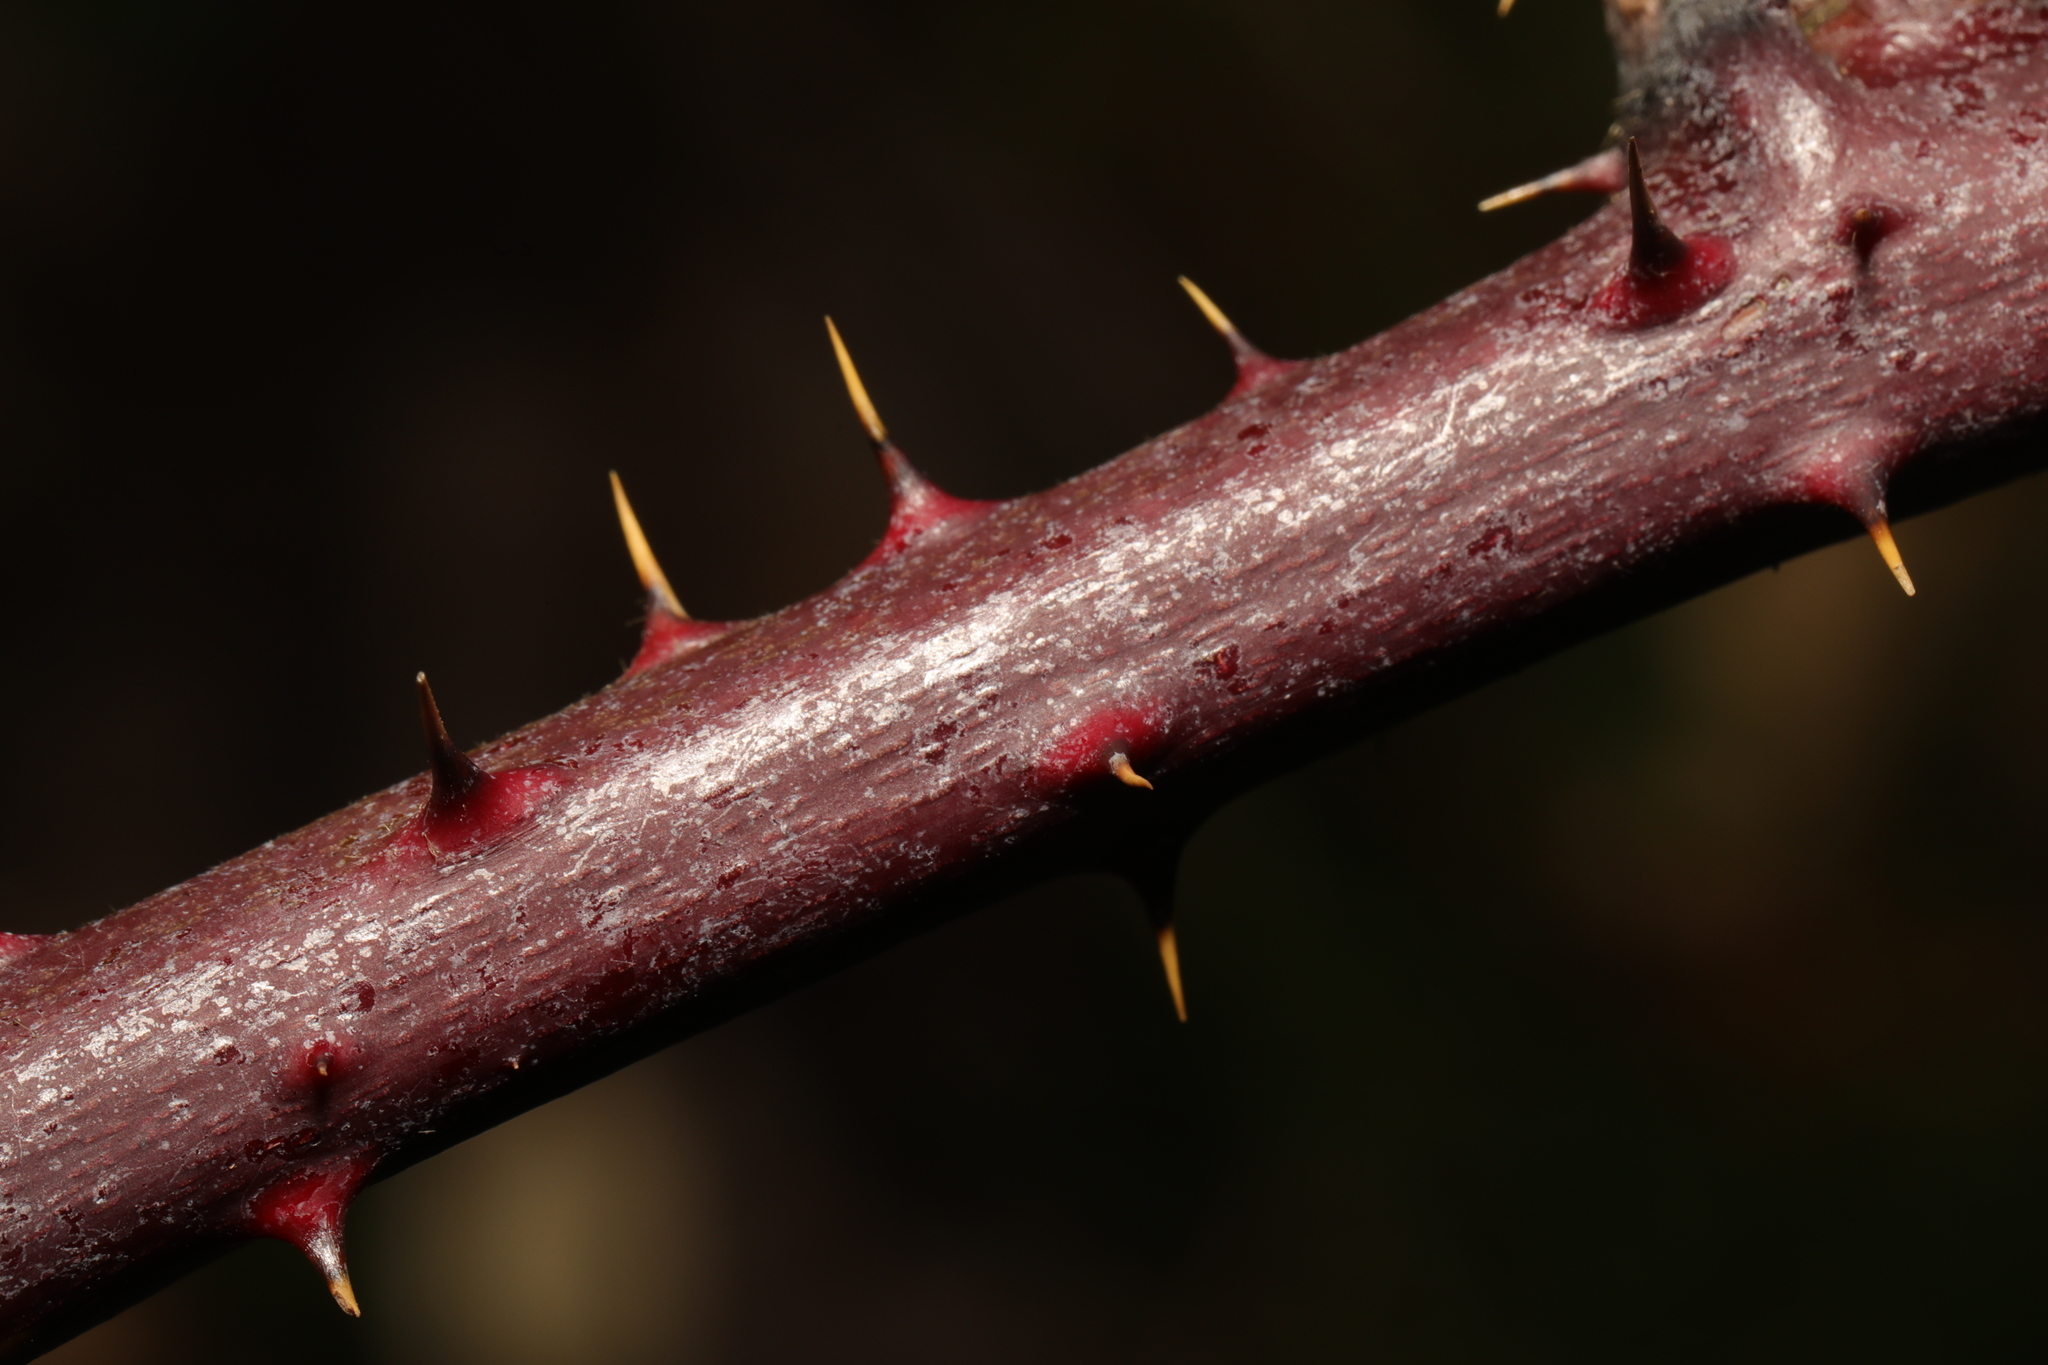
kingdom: Plantae
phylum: Tracheophyta
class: Magnoliopsida
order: Rosales
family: Rosaceae
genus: Rubus
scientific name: Rubus fruticosus
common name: Blackberry, bramble
